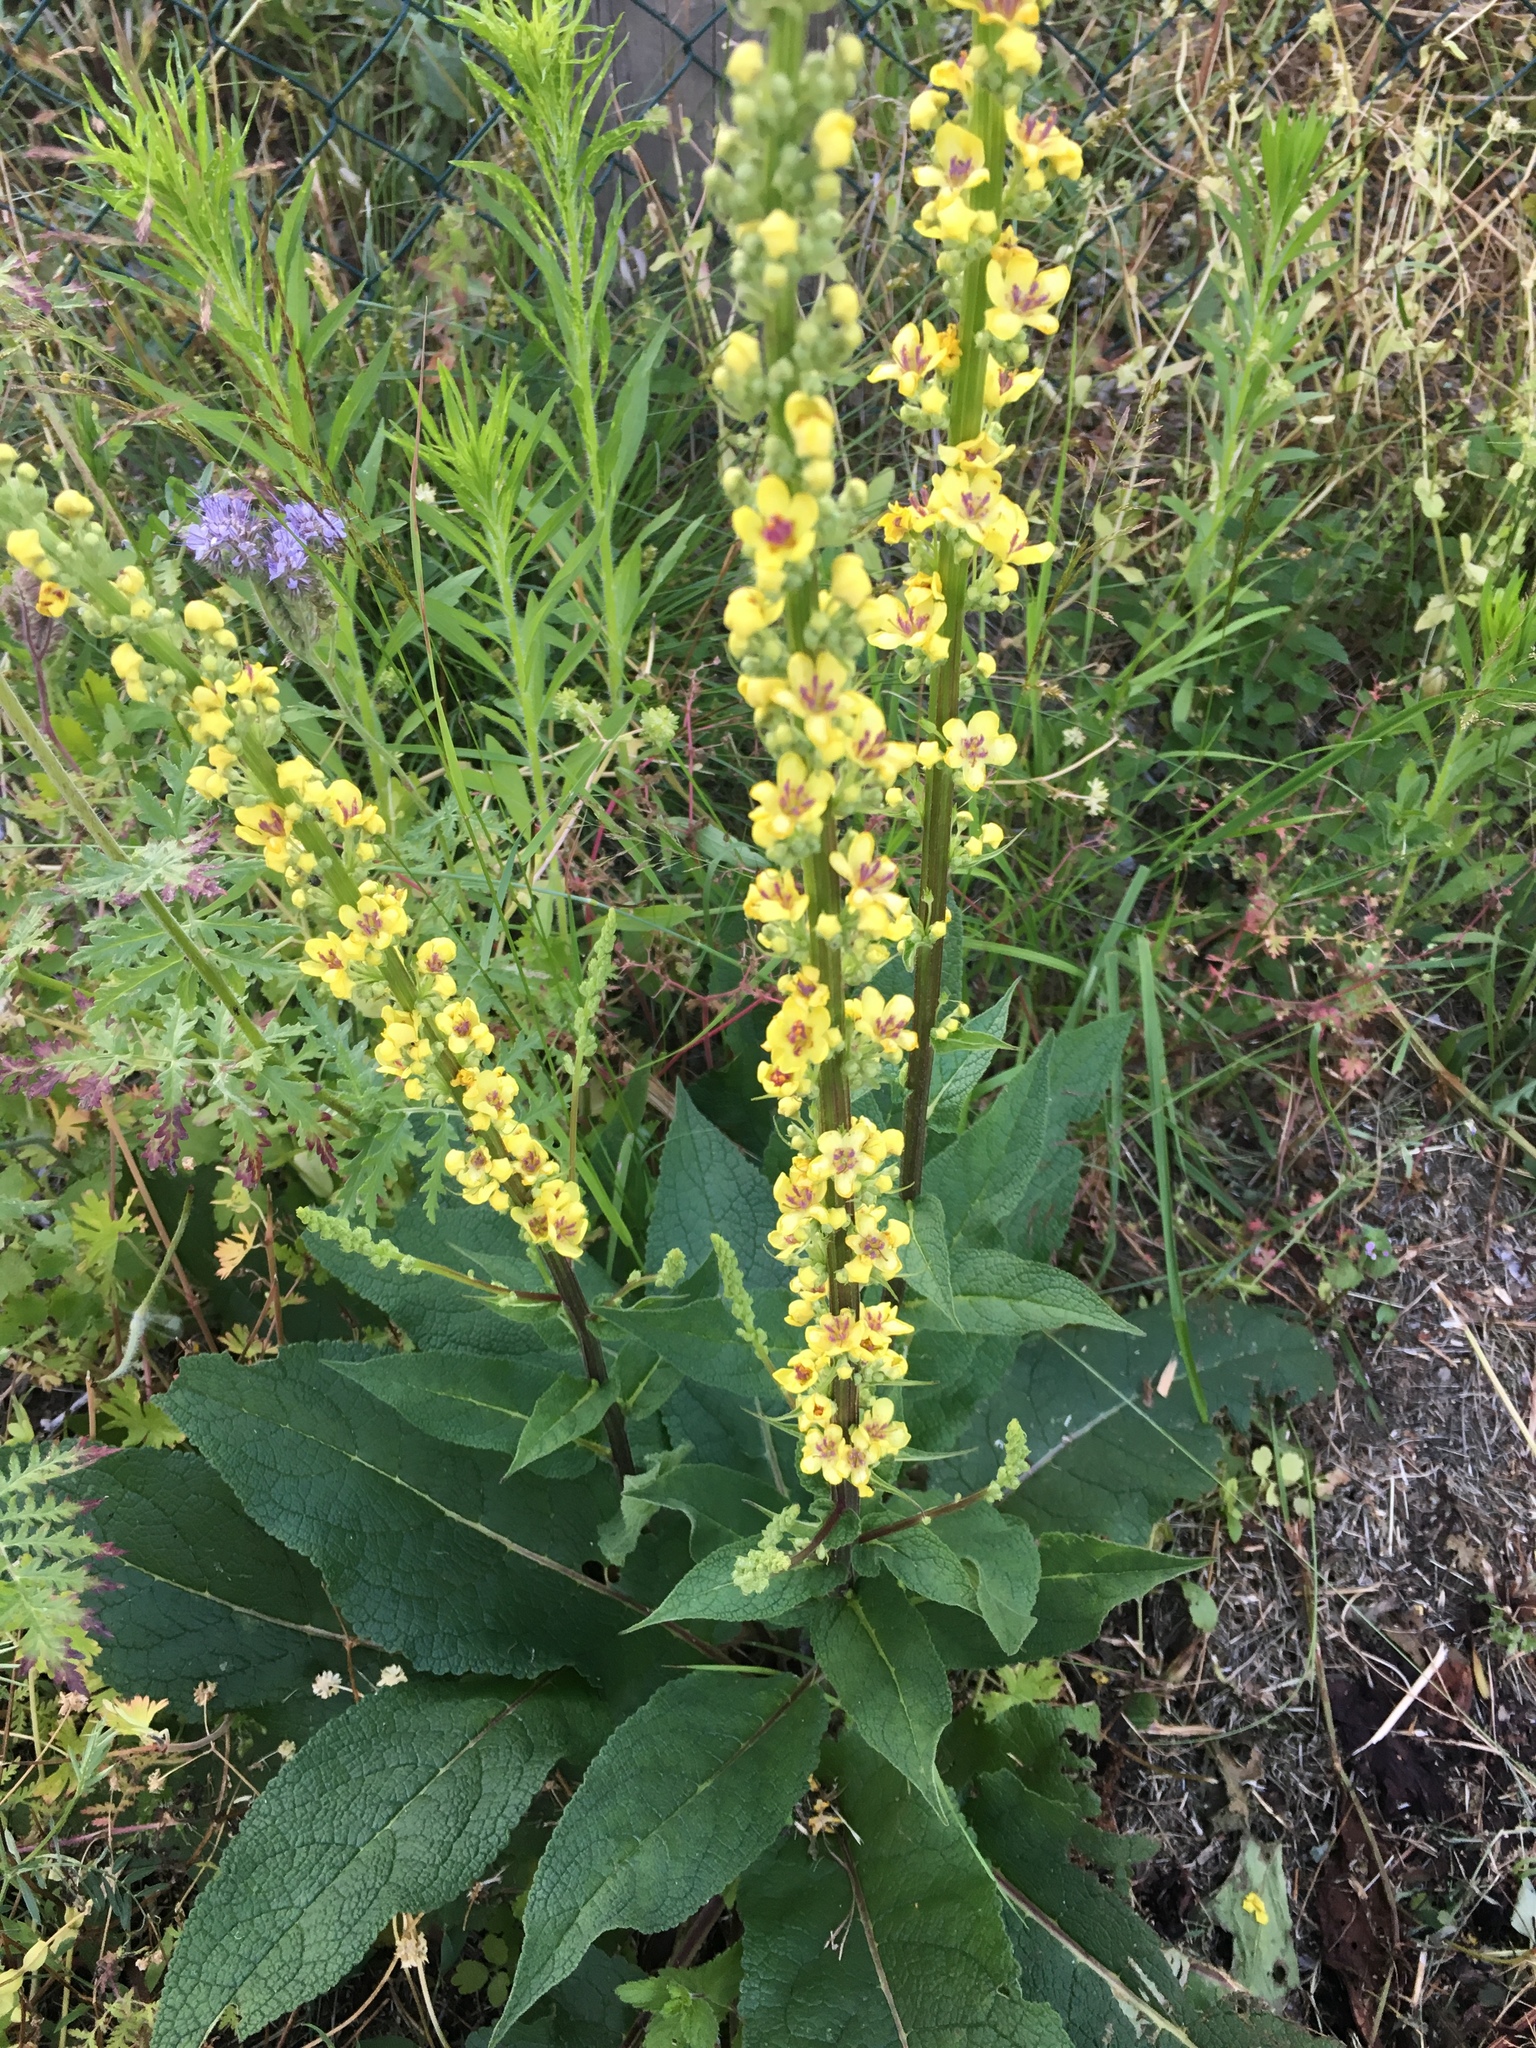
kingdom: Plantae
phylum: Tracheophyta
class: Magnoliopsida
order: Lamiales
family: Scrophulariaceae
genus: Verbascum
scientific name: Verbascum nigrum
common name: Dark mullein
